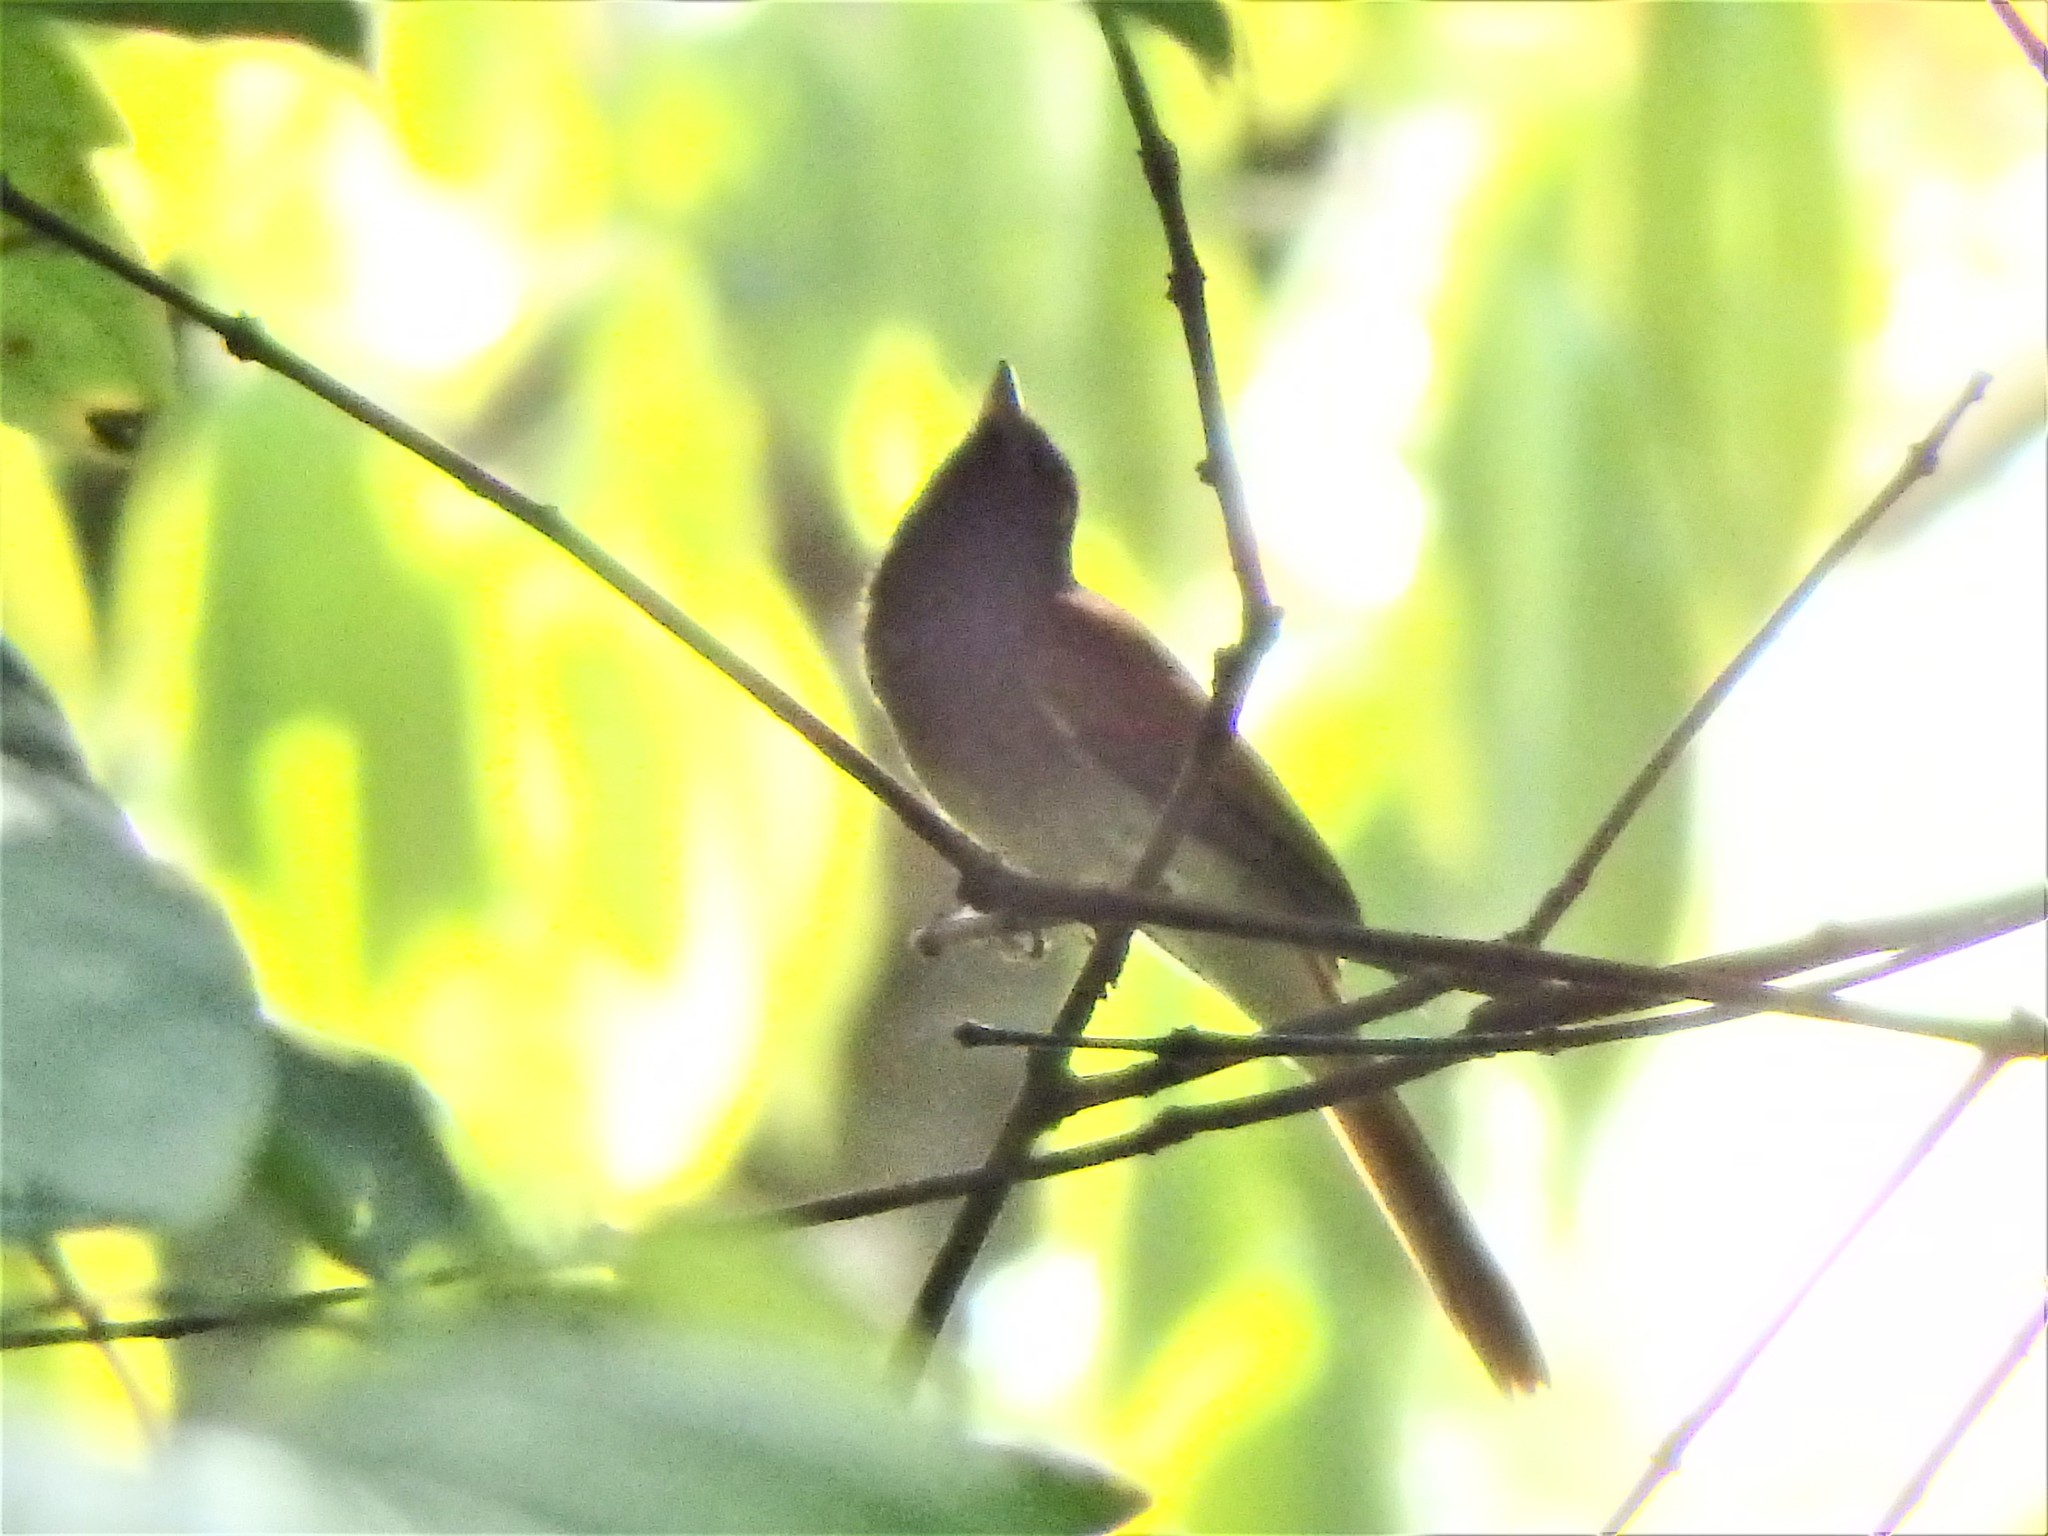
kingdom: Animalia
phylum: Chordata
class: Aves
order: Passeriformes
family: Monarchidae
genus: Terpsiphone
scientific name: Terpsiphone paradisi
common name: Indian paradise flycatcher
